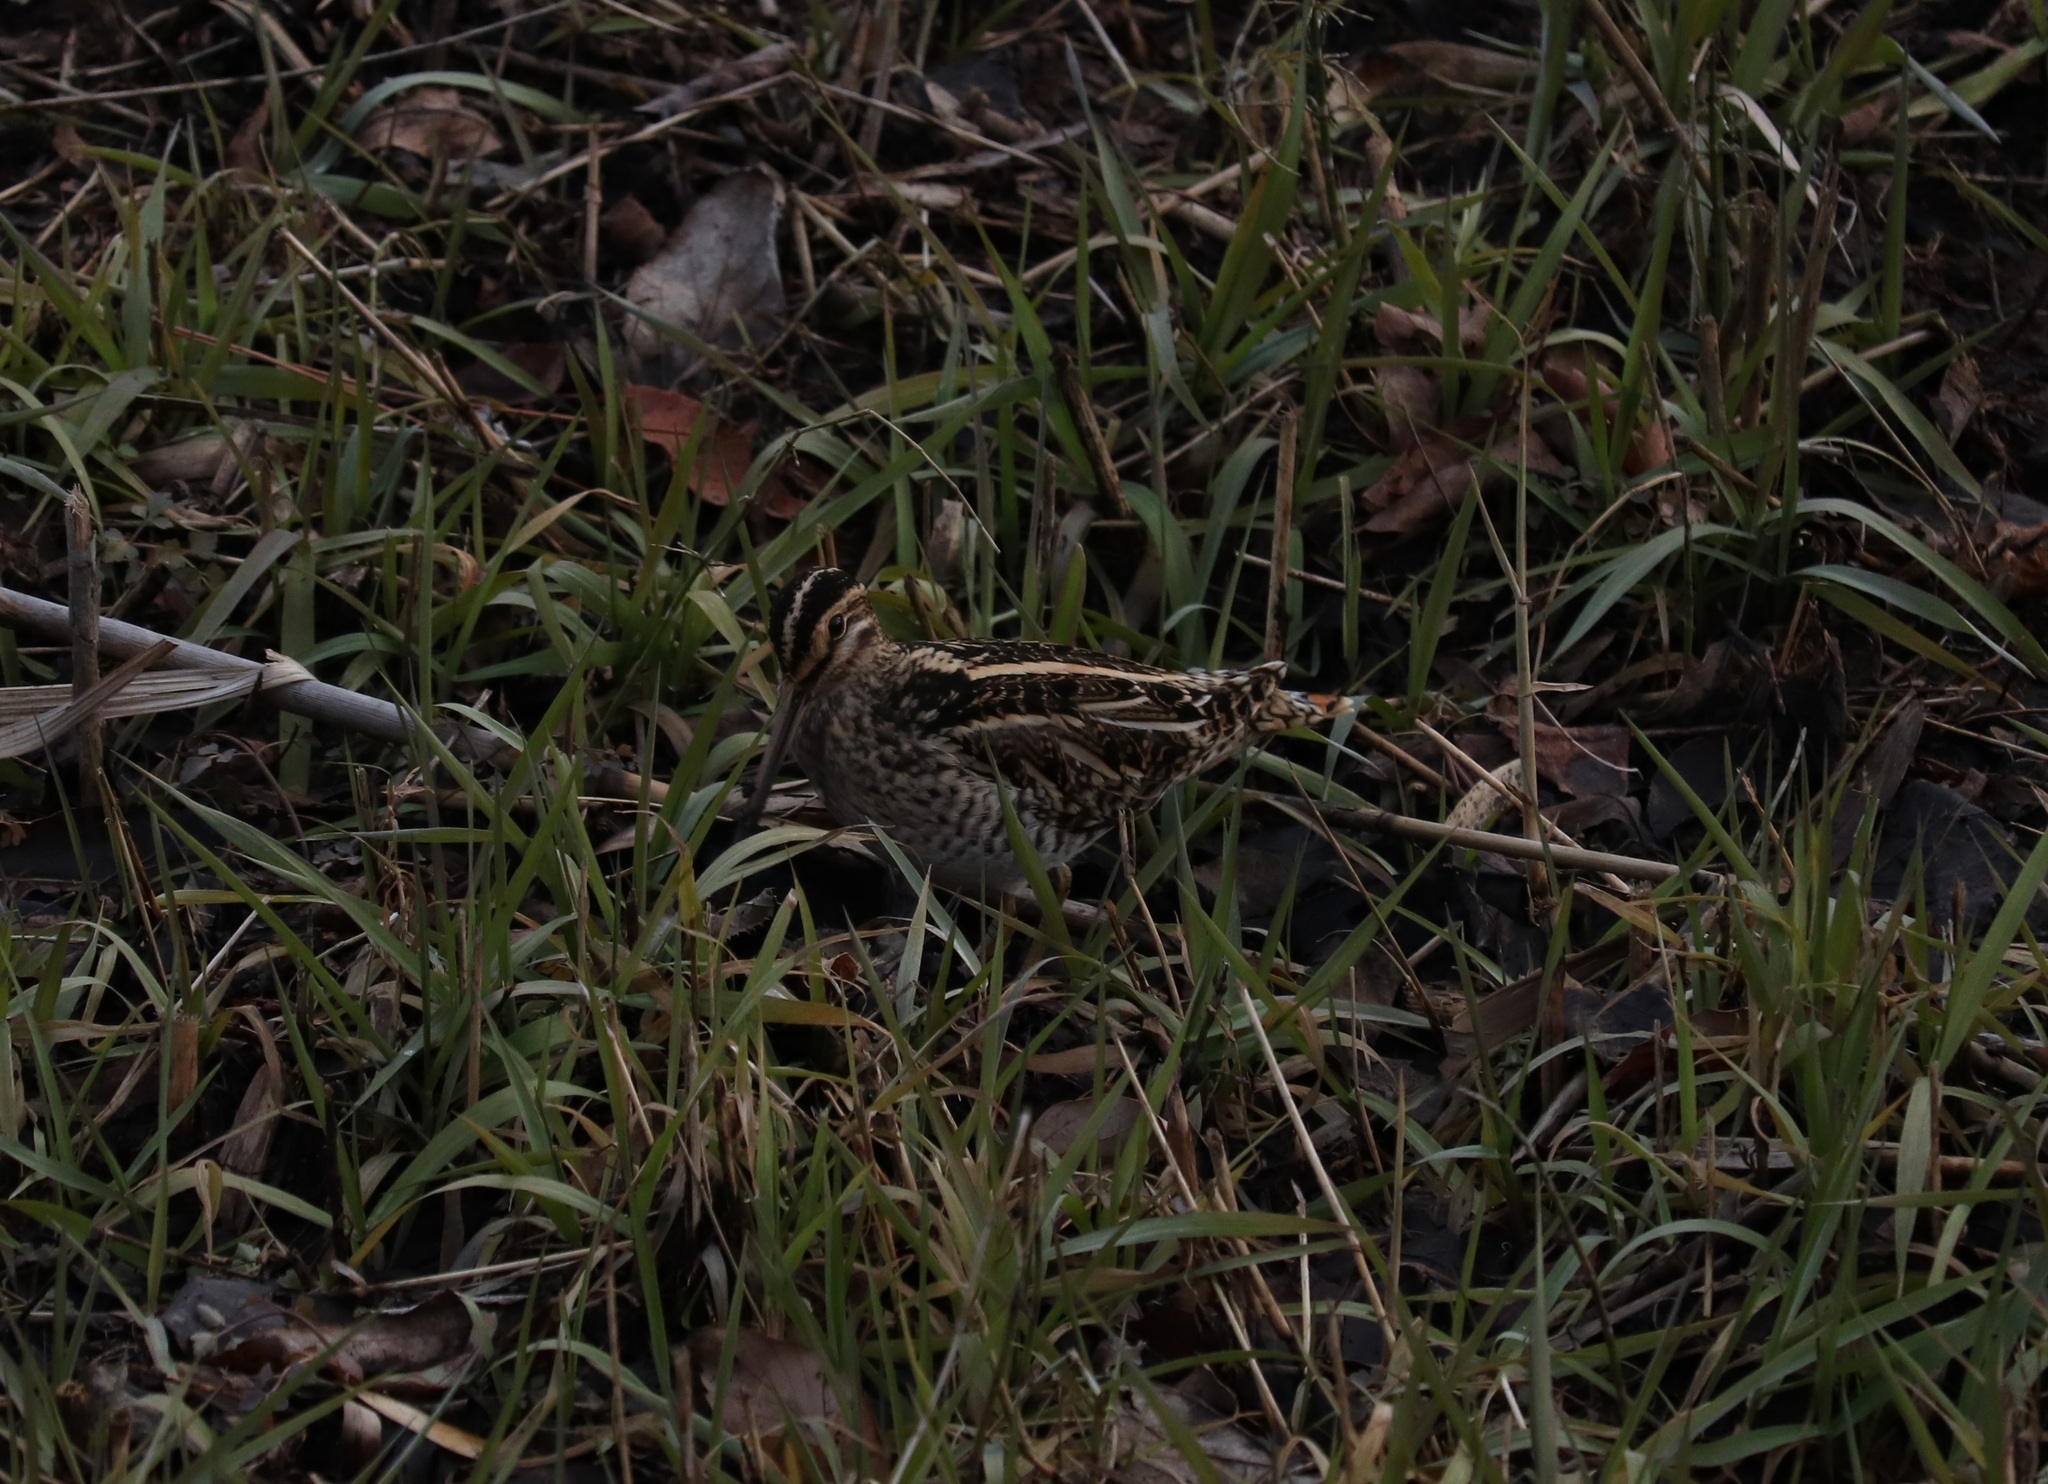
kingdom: Animalia
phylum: Chordata
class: Aves
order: Charadriiformes
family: Scolopacidae
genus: Gallinago
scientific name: Gallinago gallinago
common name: Common snipe
